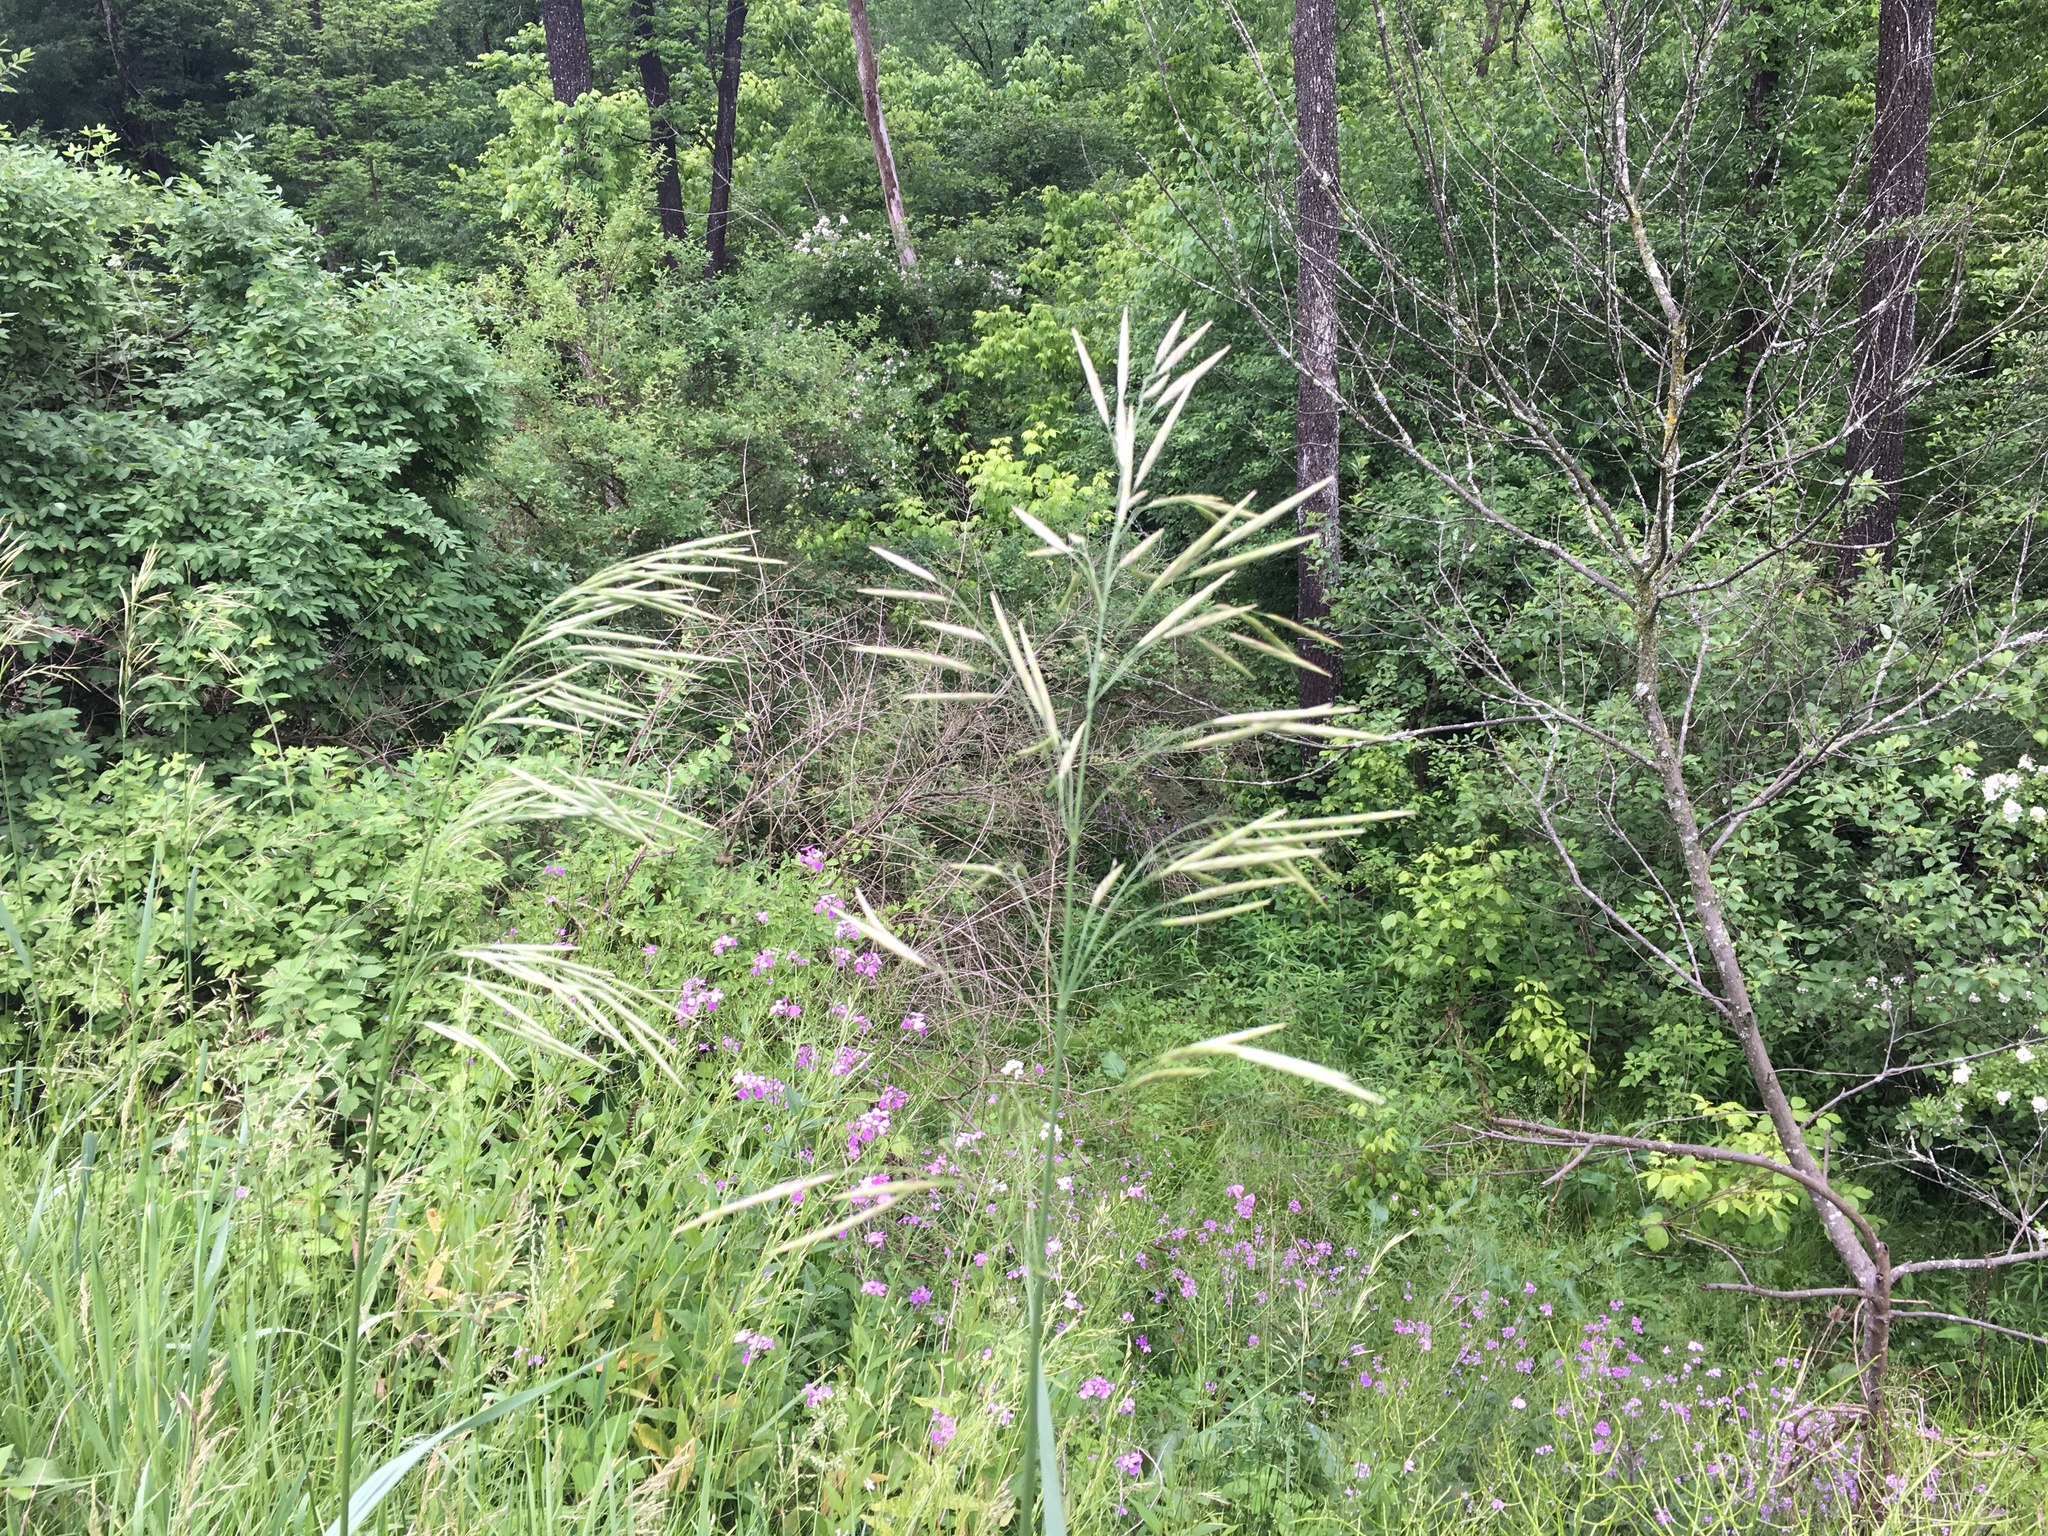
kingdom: Plantae
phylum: Tracheophyta
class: Liliopsida
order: Poales
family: Poaceae
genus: Bromus
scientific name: Bromus inermis
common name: Smooth brome
